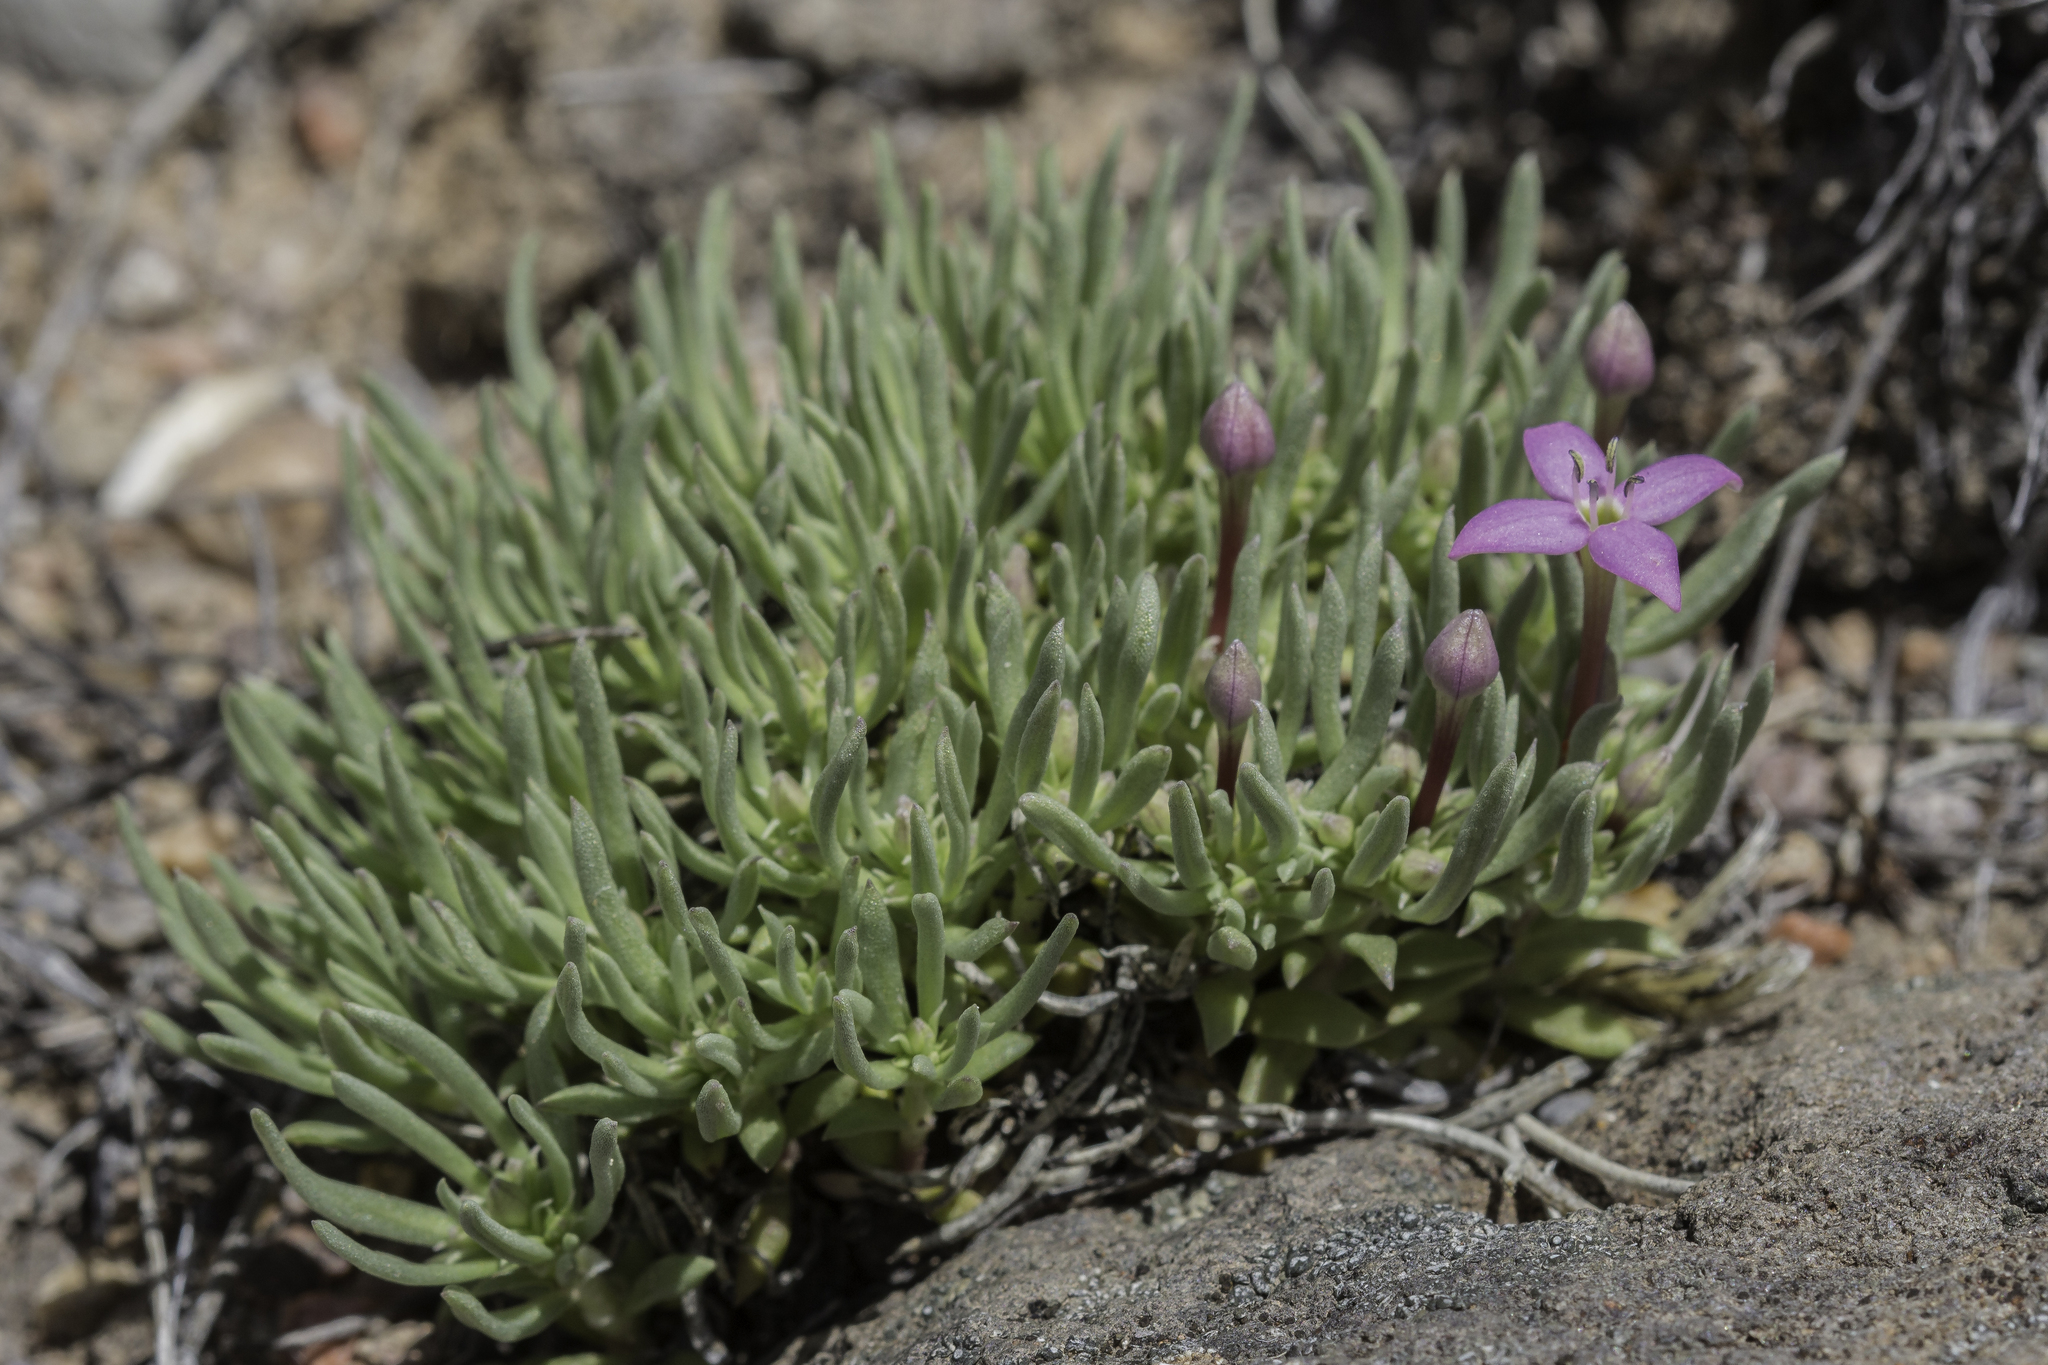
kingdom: Plantae
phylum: Tracheophyta
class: Magnoliopsida
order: Gentianales
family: Rubiaceae
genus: Houstonia
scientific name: Houstonia rubra
